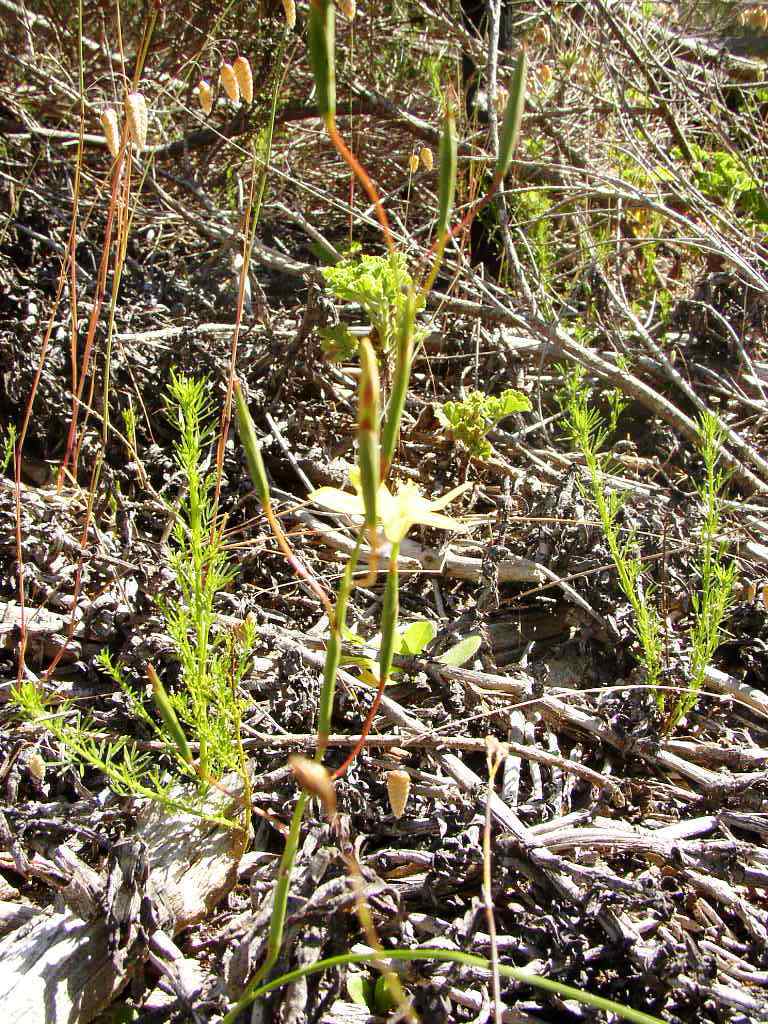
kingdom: Plantae
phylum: Tracheophyta
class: Liliopsida
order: Asparagales
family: Iridaceae
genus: Moraea
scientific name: Moraea bituminosa
